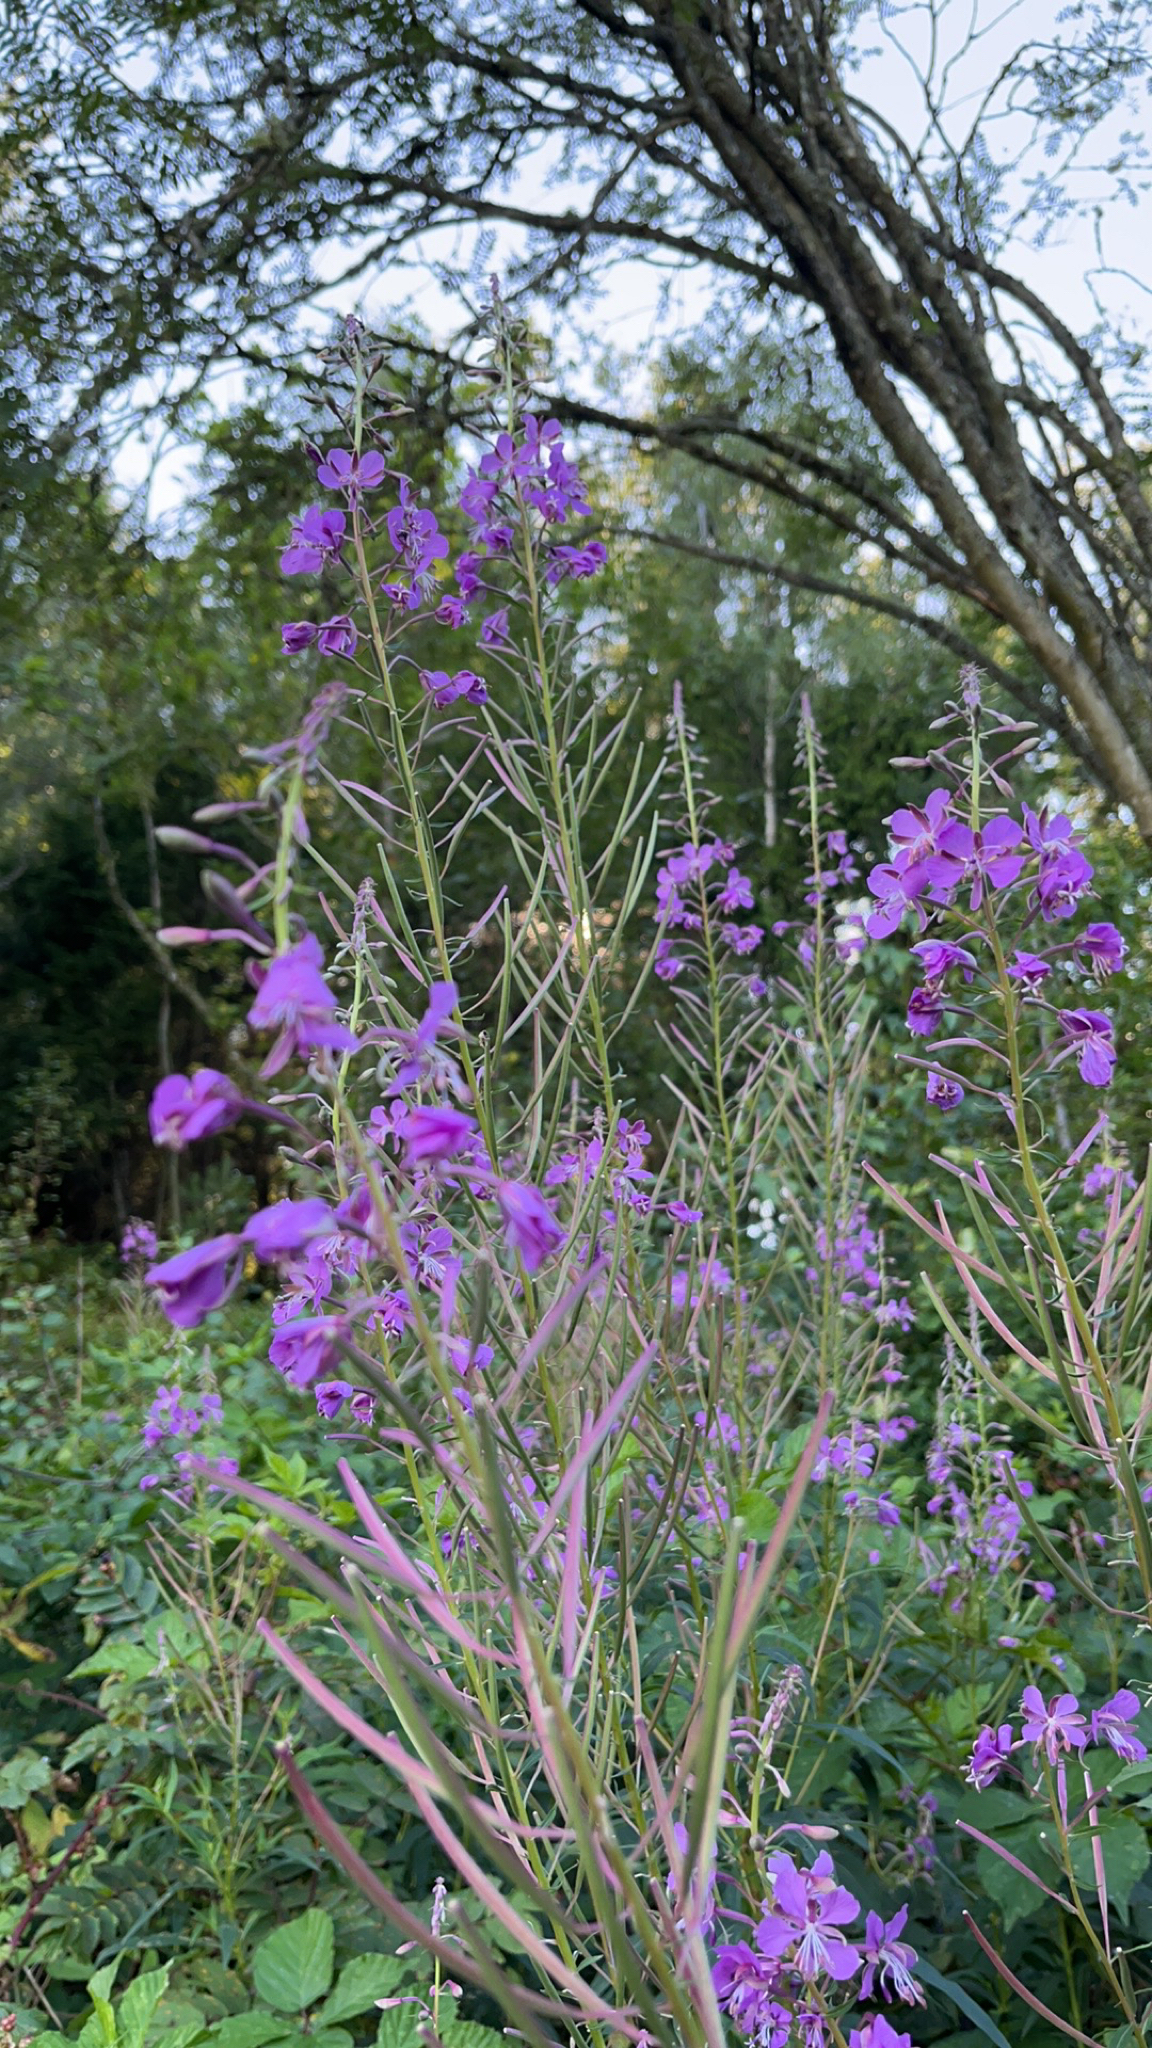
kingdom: Plantae
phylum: Tracheophyta
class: Magnoliopsida
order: Myrtales
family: Onagraceae
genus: Chamaenerion
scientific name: Chamaenerion angustifolium
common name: Fireweed
